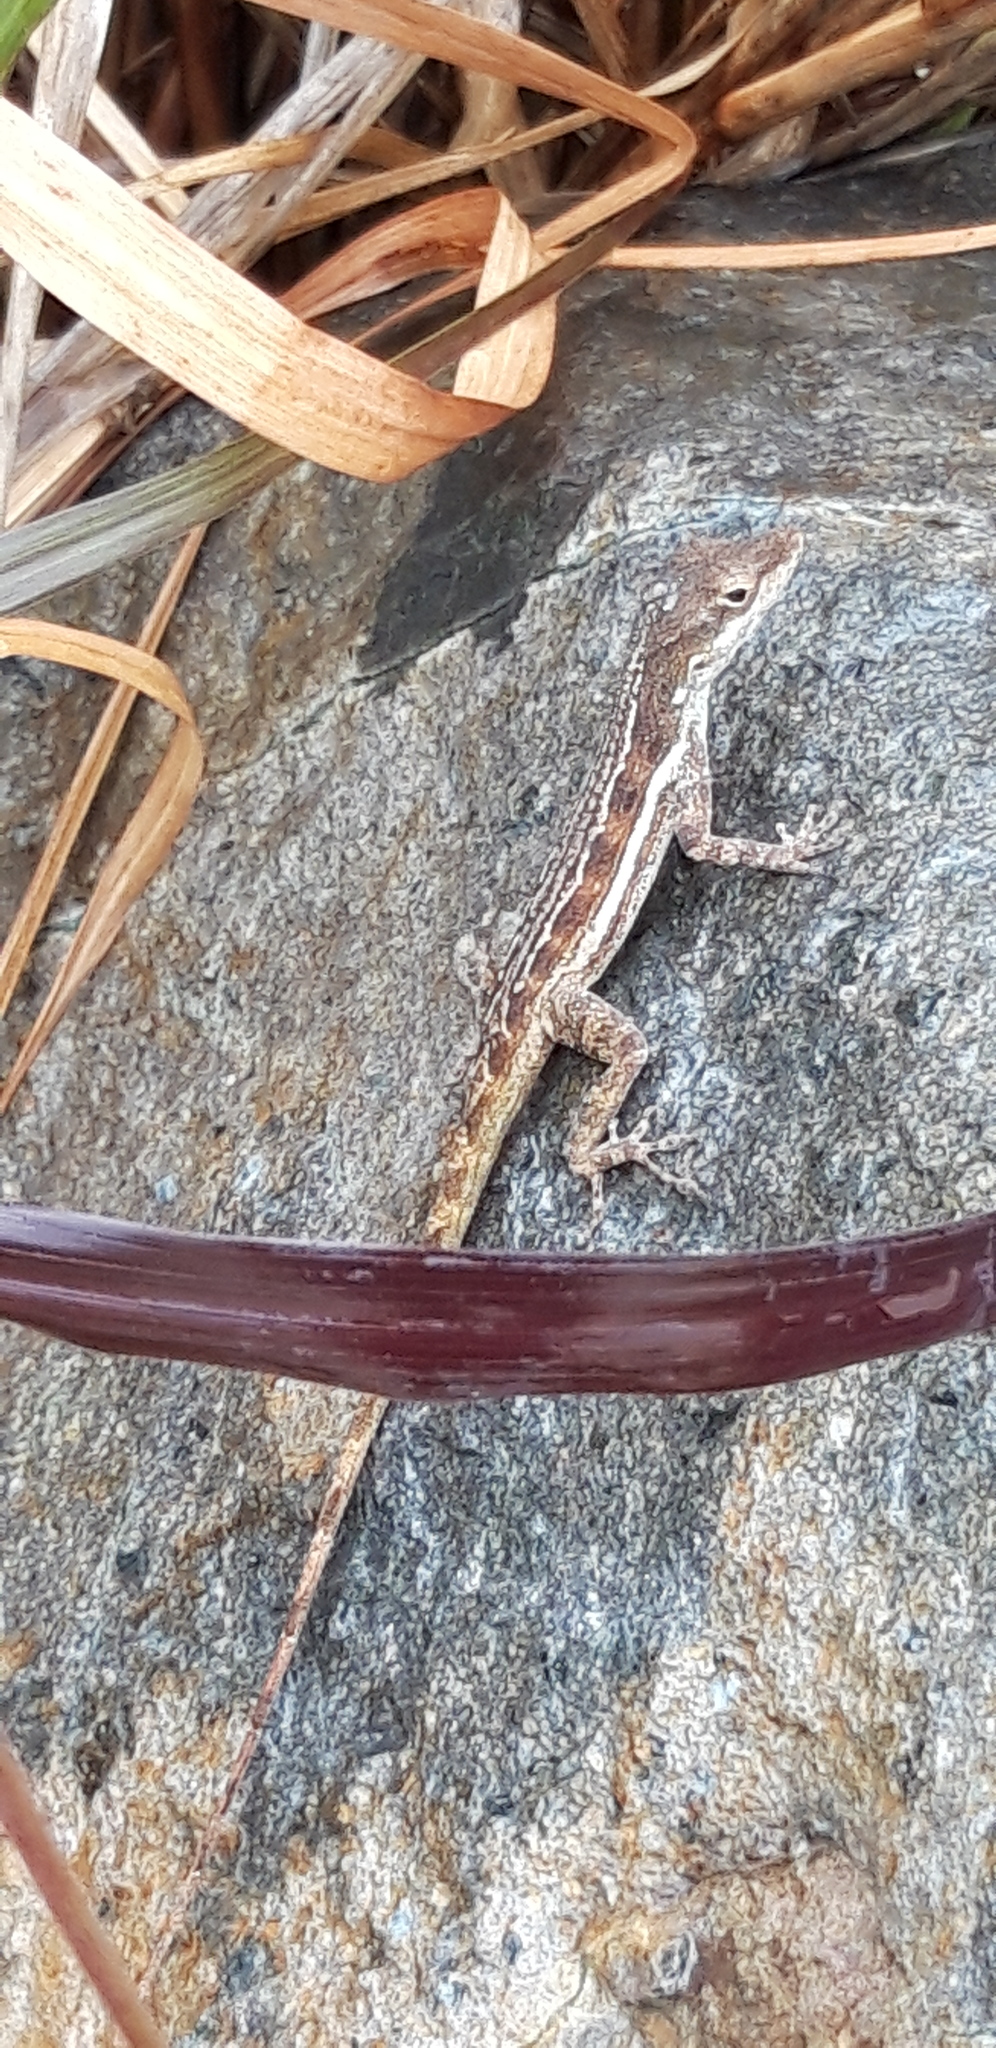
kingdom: Animalia
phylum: Chordata
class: Squamata
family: Dactyloidae
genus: Anolis
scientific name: Anolis gingivinus
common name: Anguilla anole
